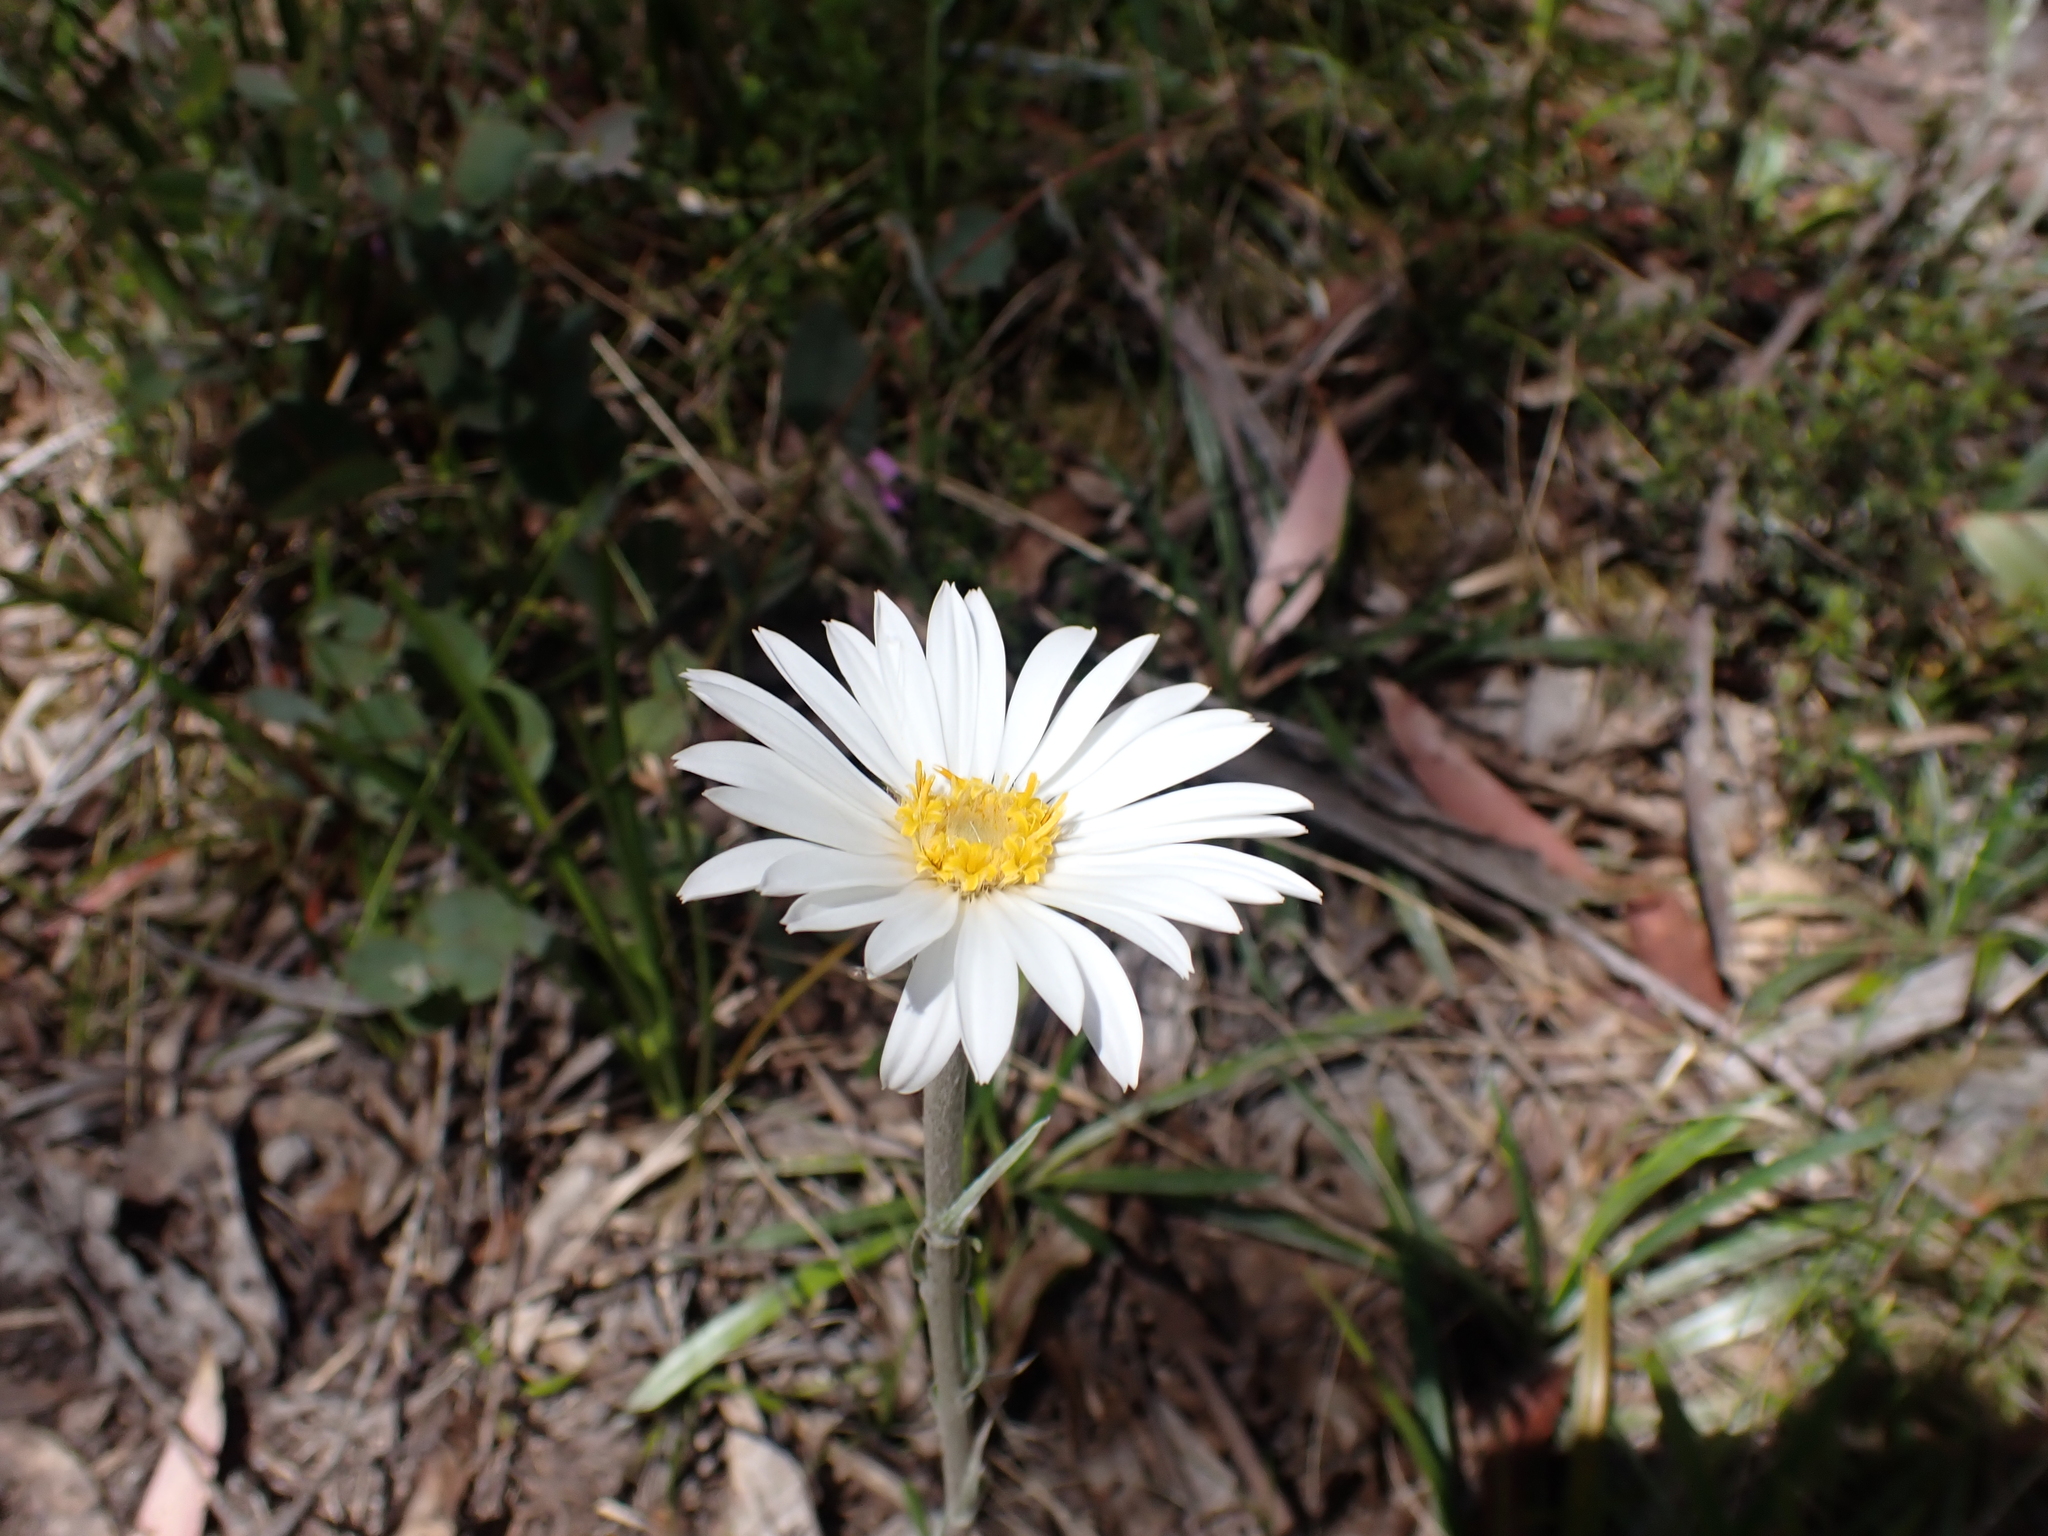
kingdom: Plantae
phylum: Tracheophyta
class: Magnoliopsida
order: Asterales
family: Asteraceae
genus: Celmisia
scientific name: Celmisia tomentella
